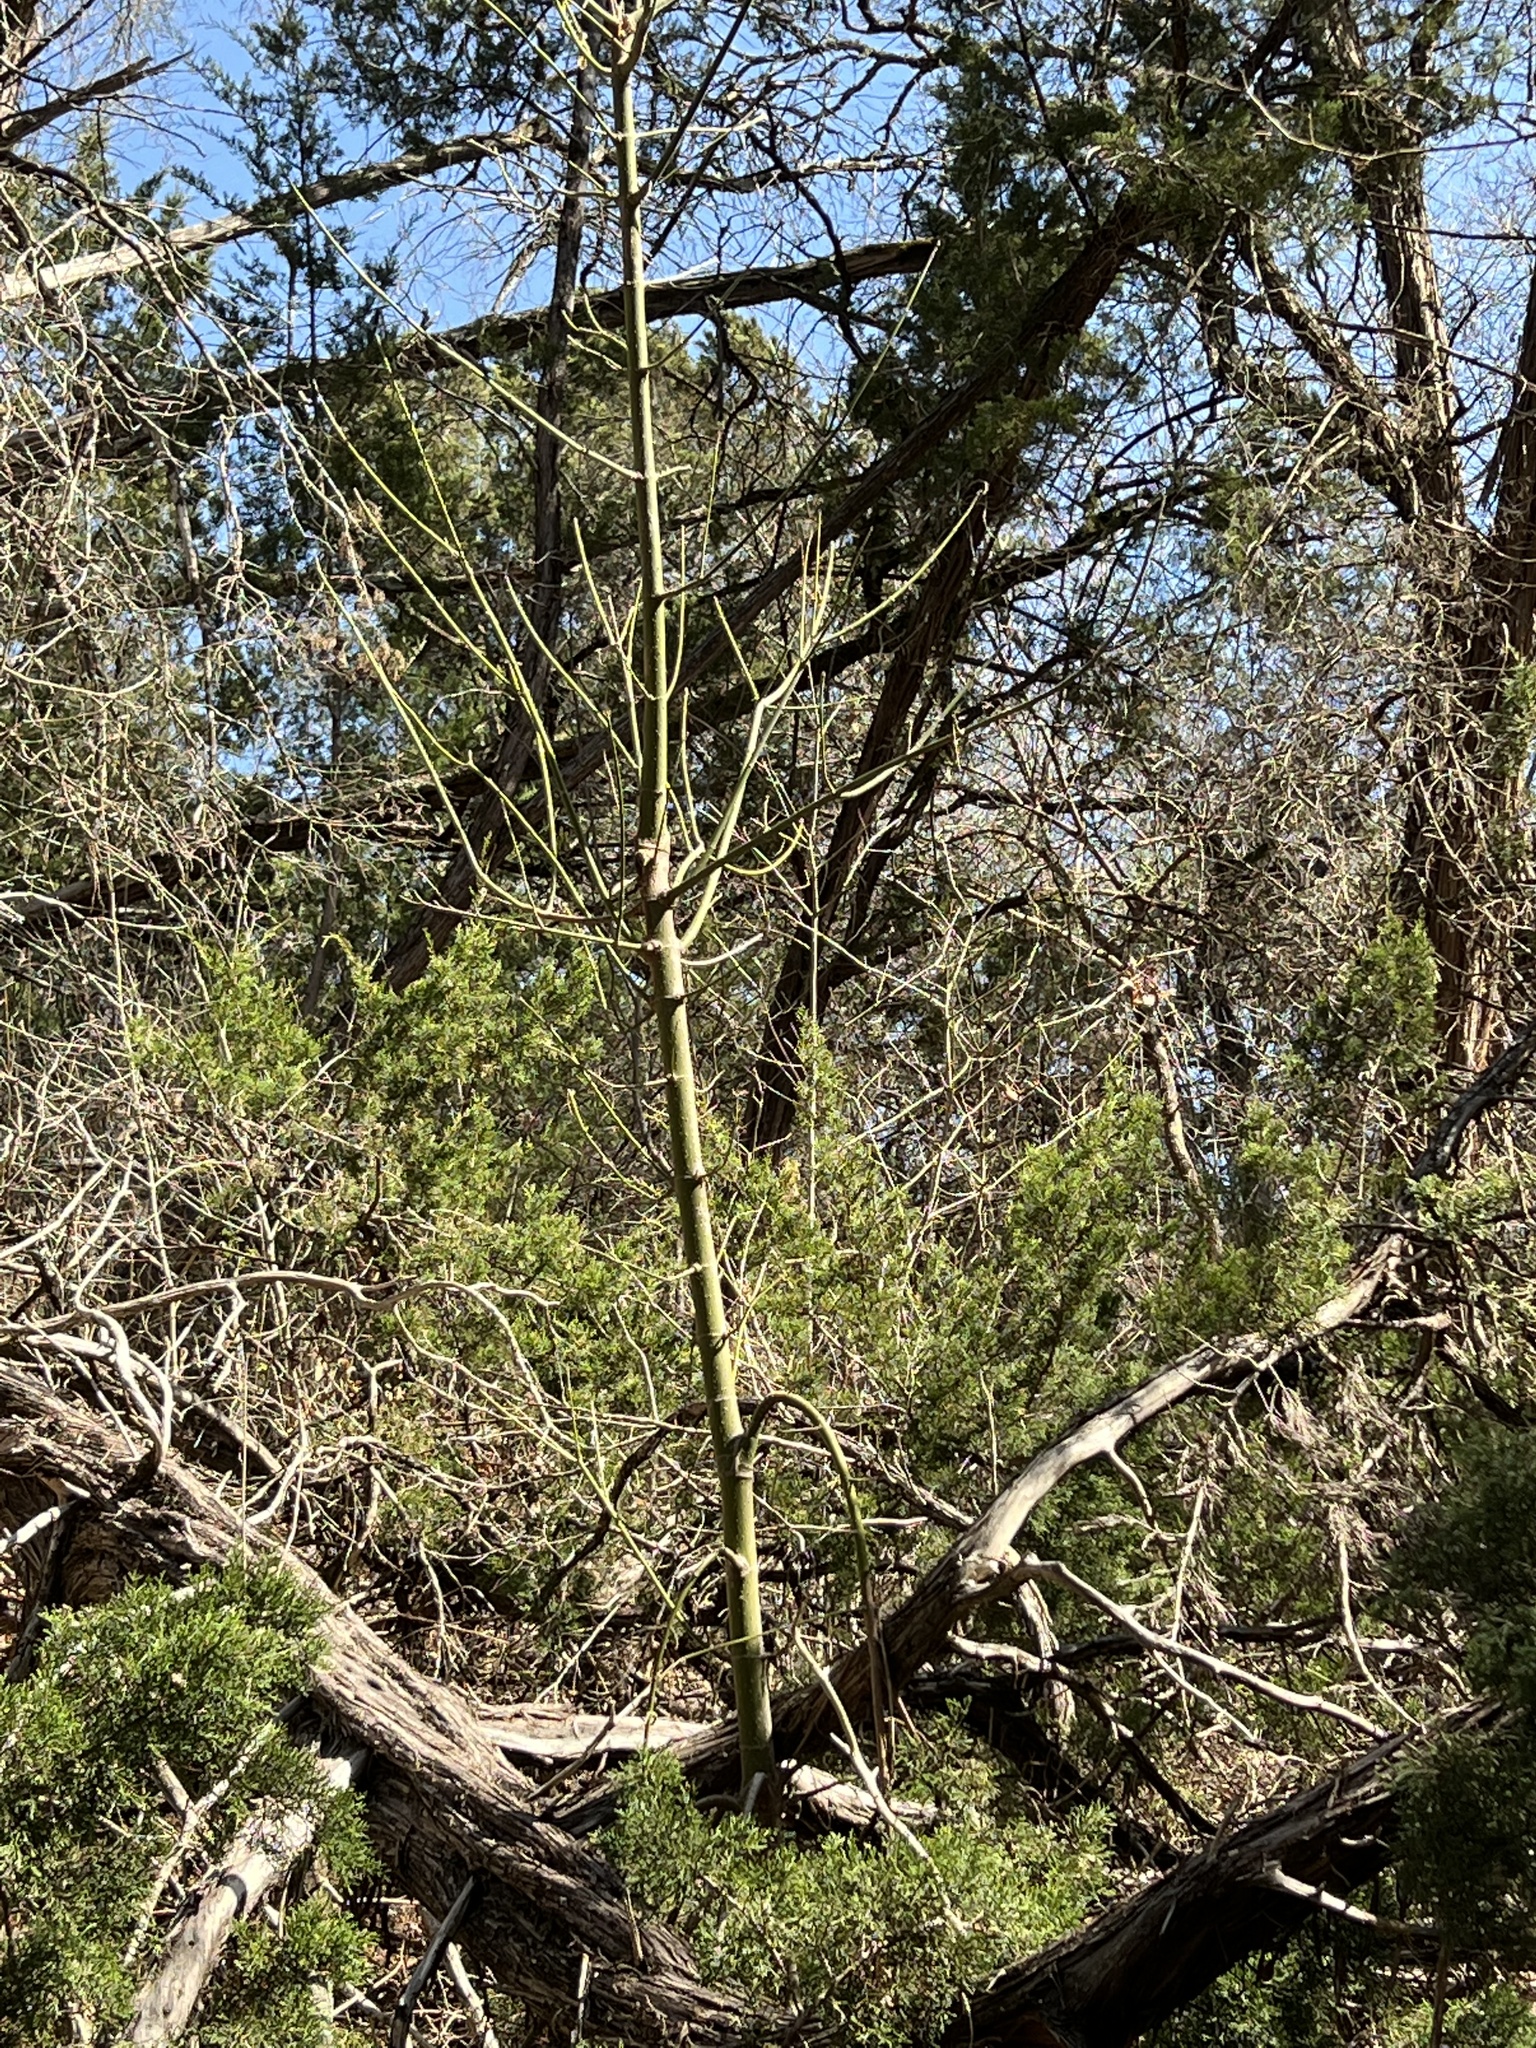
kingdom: Plantae
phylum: Tracheophyta
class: Magnoliopsida
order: Malvales
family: Malvaceae
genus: Firmiana
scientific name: Firmiana simplex
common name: Chinese parasoltree
